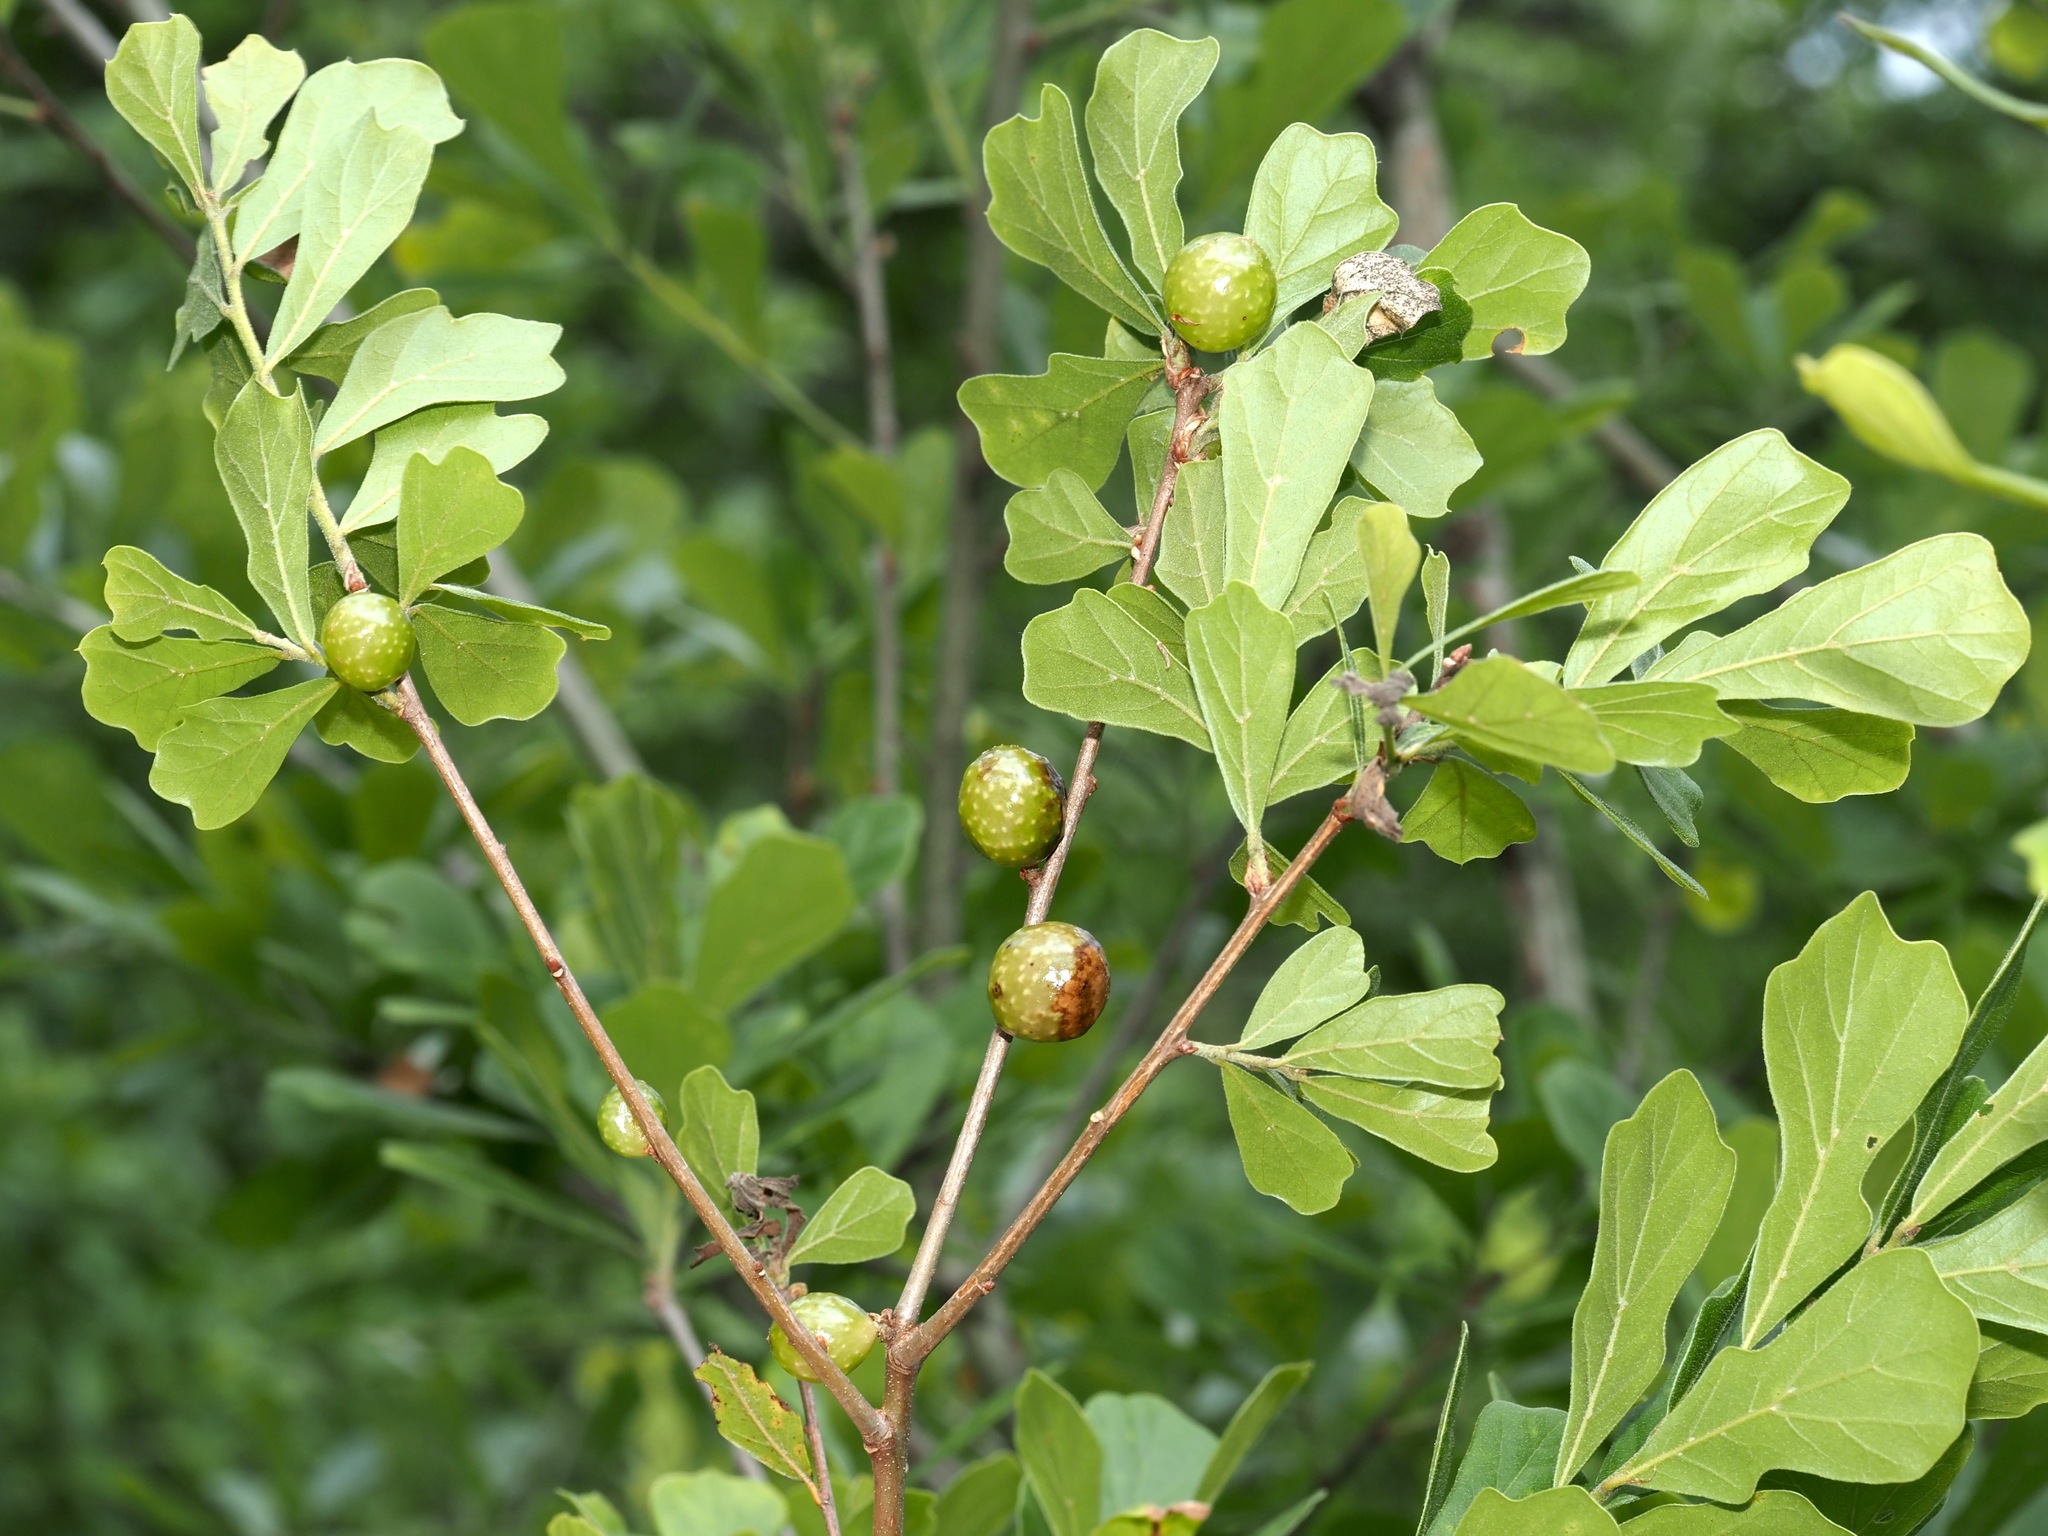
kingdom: Animalia
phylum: Arthropoda
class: Insecta
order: Hymenoptera
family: Cynipidae
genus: Amphibolips
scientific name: Amphibolips
